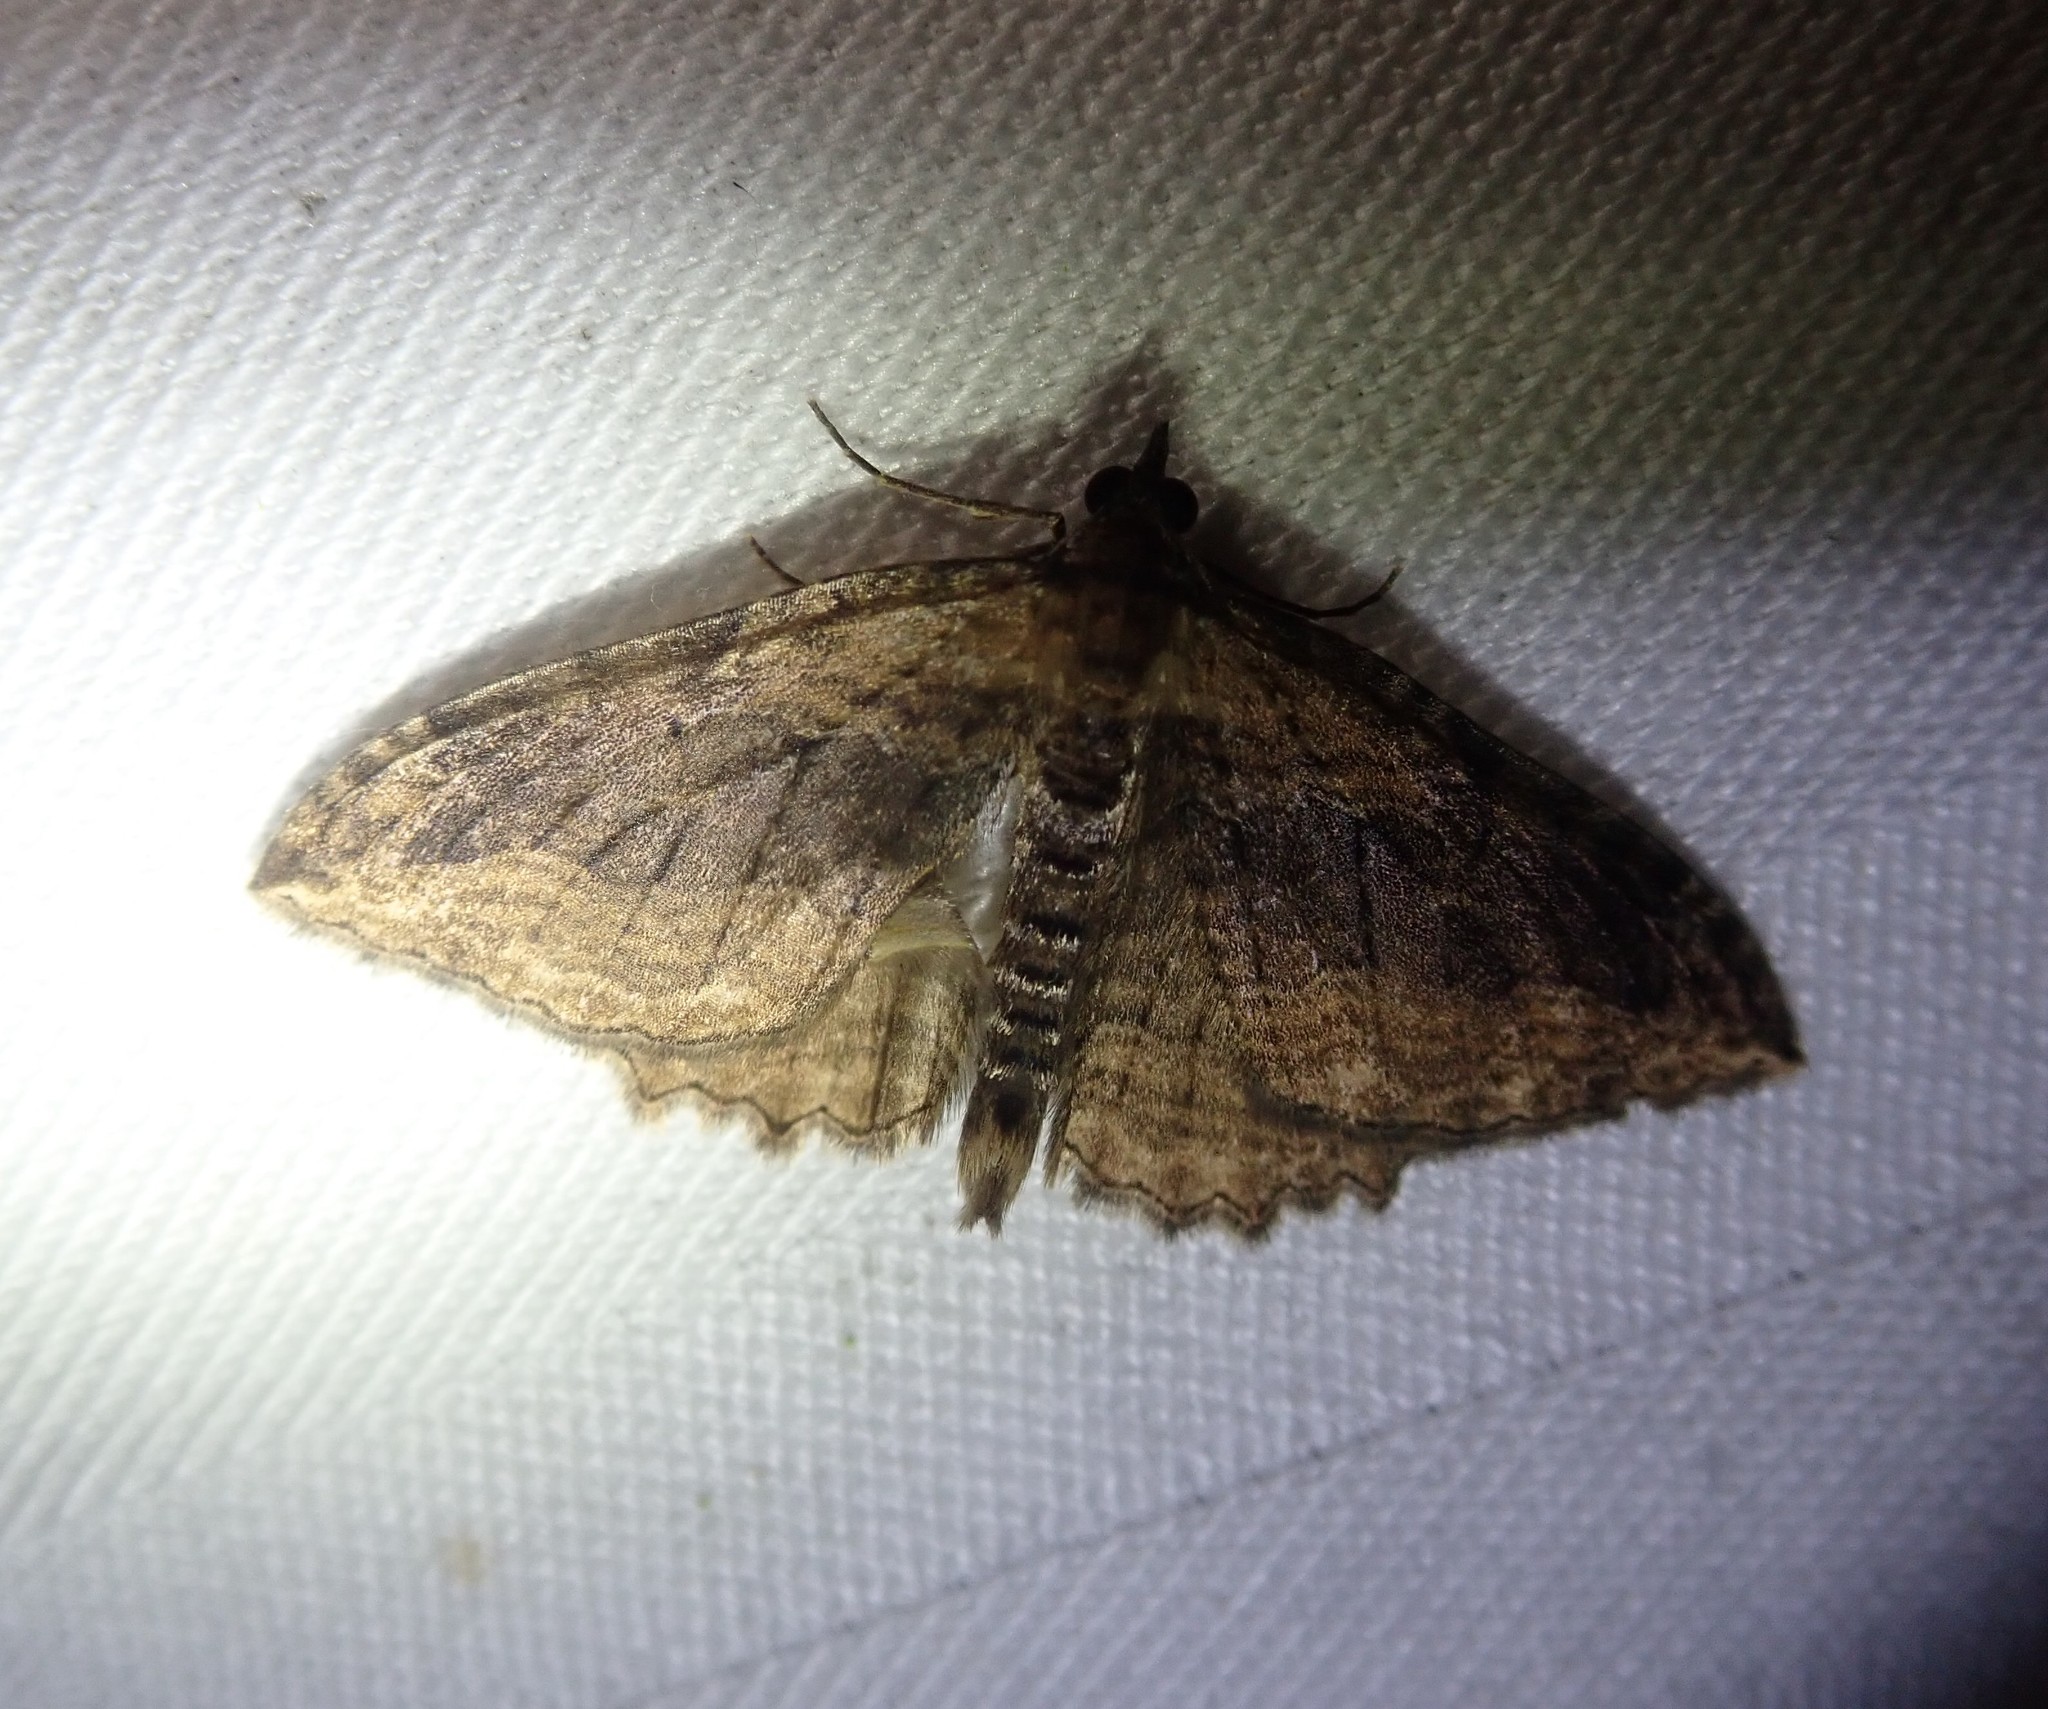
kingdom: Animalia
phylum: Arthropoda
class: Insecta
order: Lepidoptera
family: Geometridae
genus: Philereme
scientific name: Philereme transversata
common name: Dark umber
